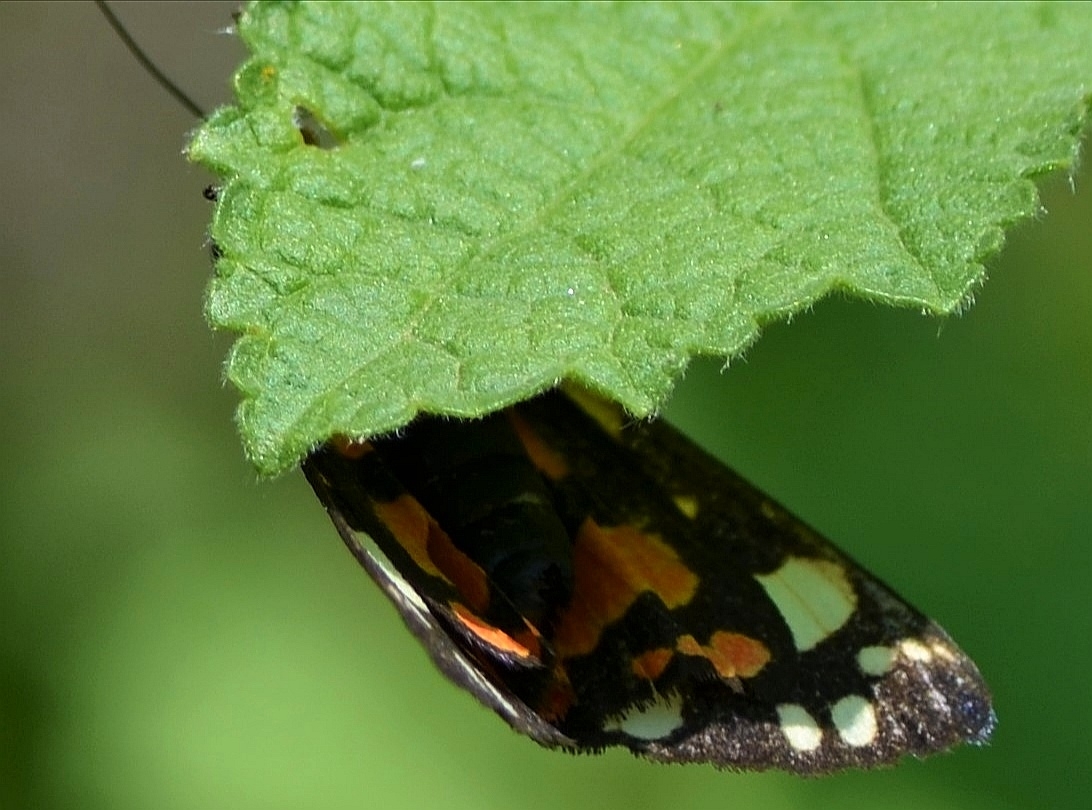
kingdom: Animalia
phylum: Arthropoda
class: Insecta
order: Lepidoptera
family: Erebidae
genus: Callimorpha
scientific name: Callimorpha dominula
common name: Scarlet tiger
